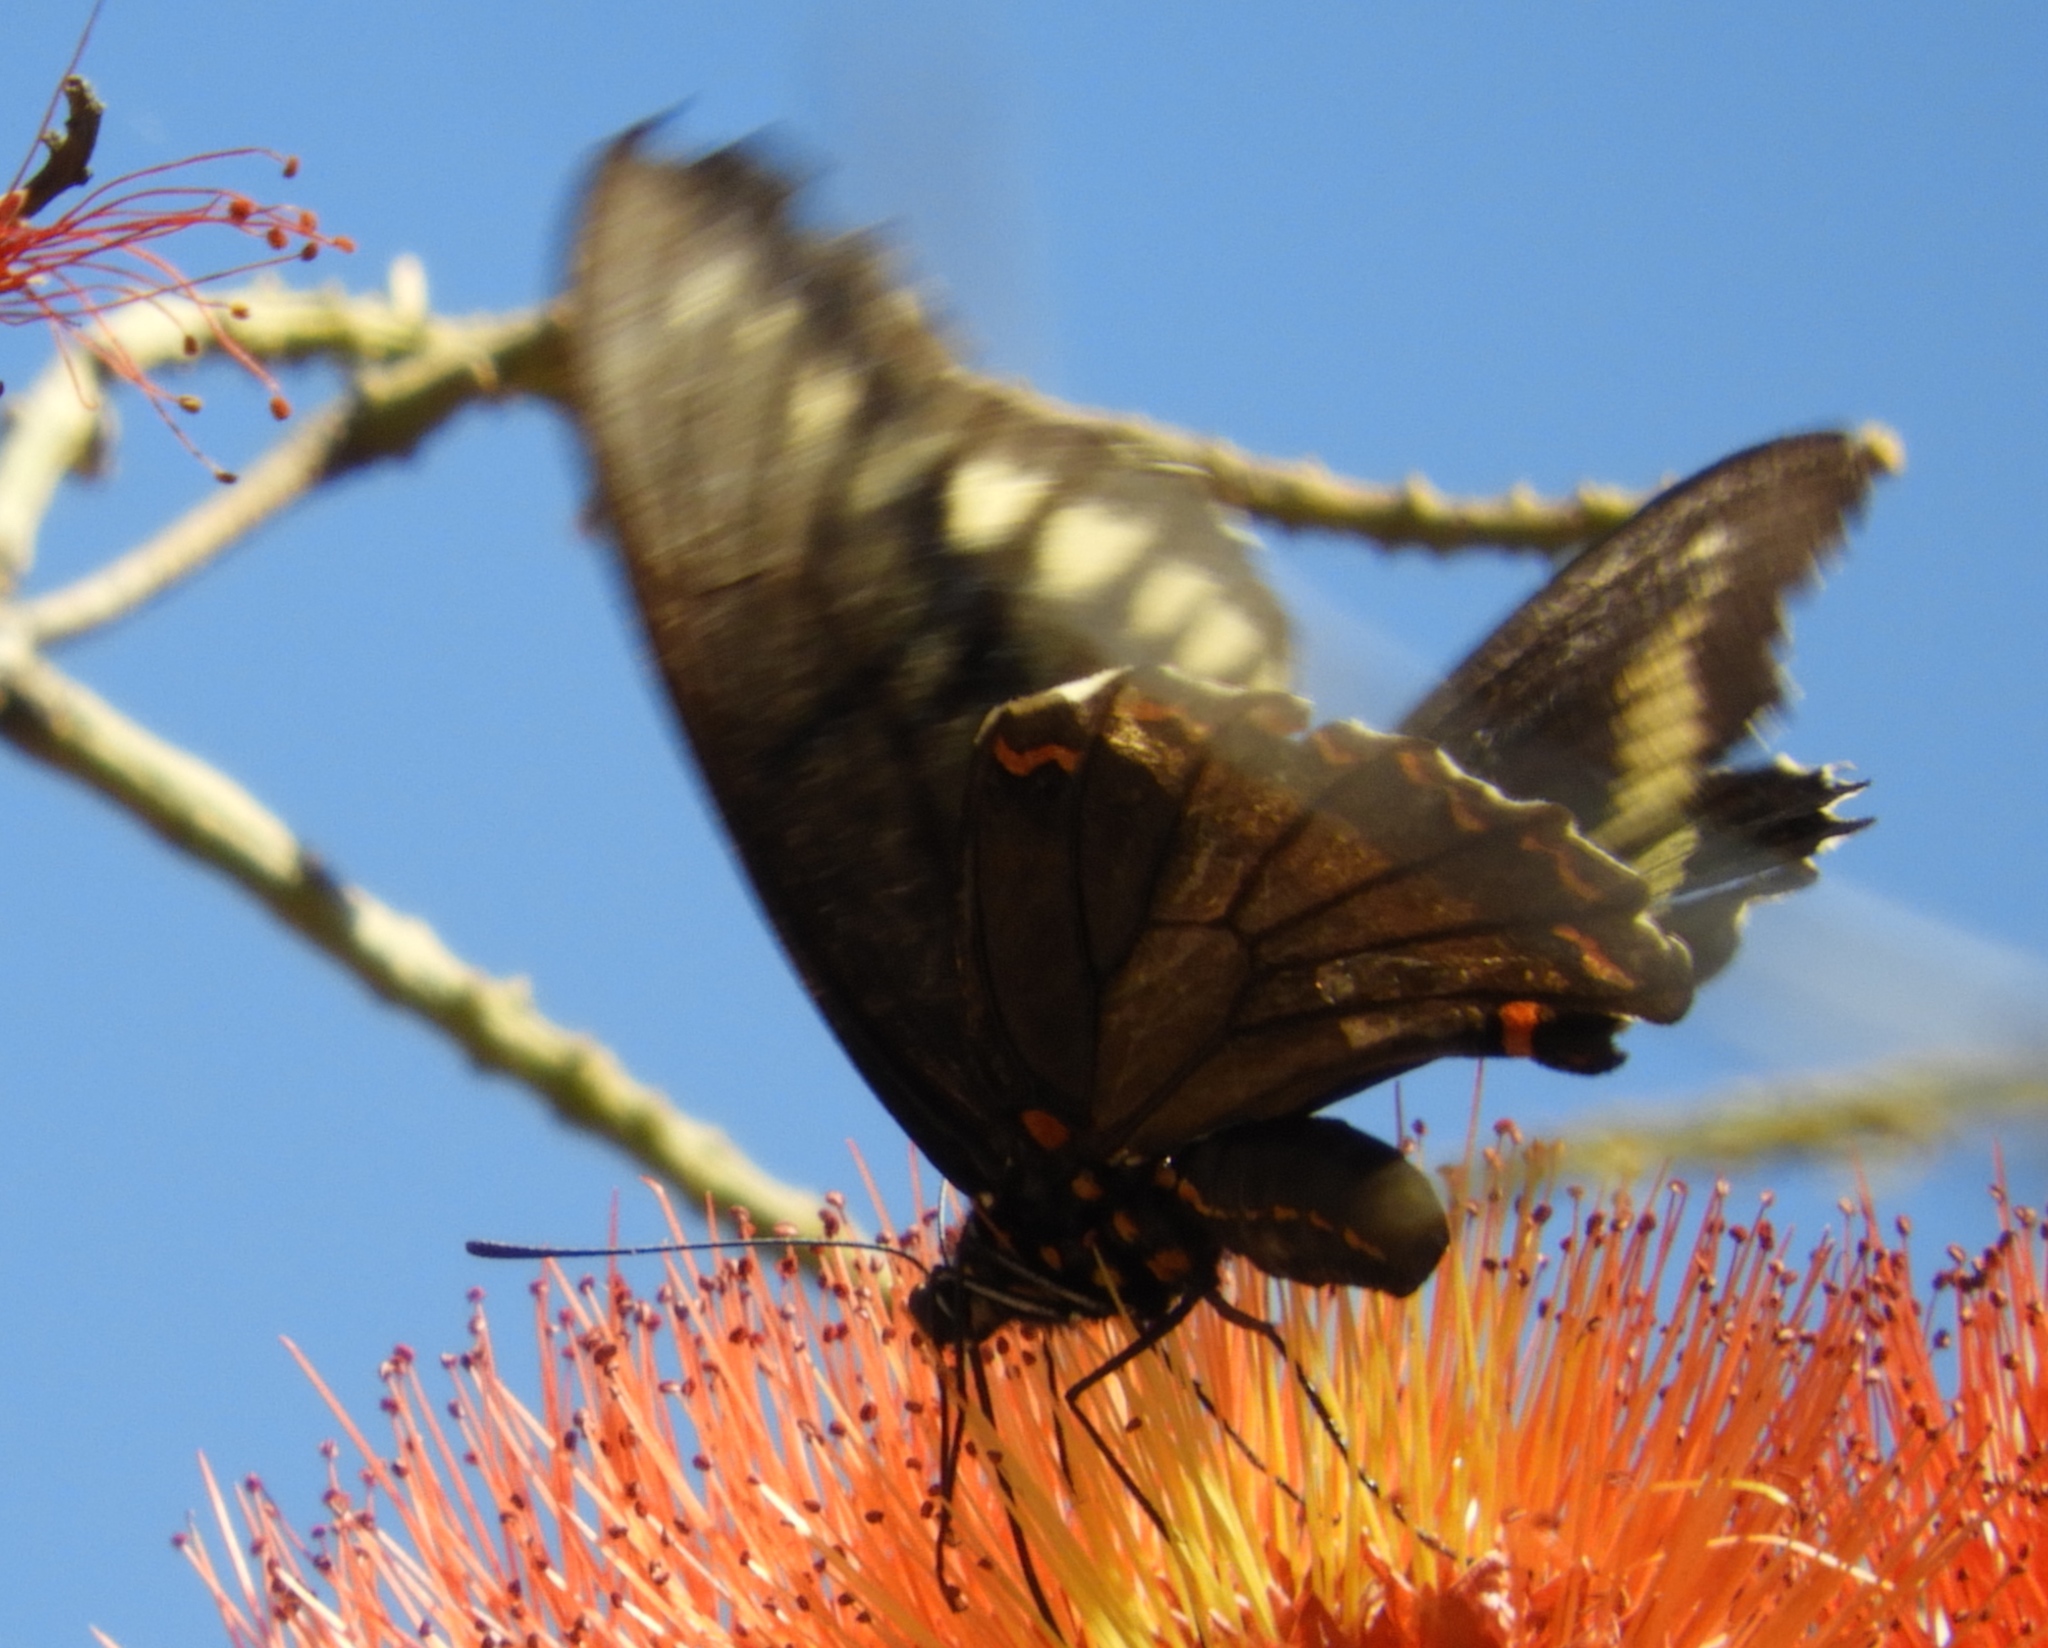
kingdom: Animalia
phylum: Arthropoda
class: Insecta
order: Lepidoptera
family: Papilionidae
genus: Battus
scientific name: Battus polydamas
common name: Polydamas swallowtail
